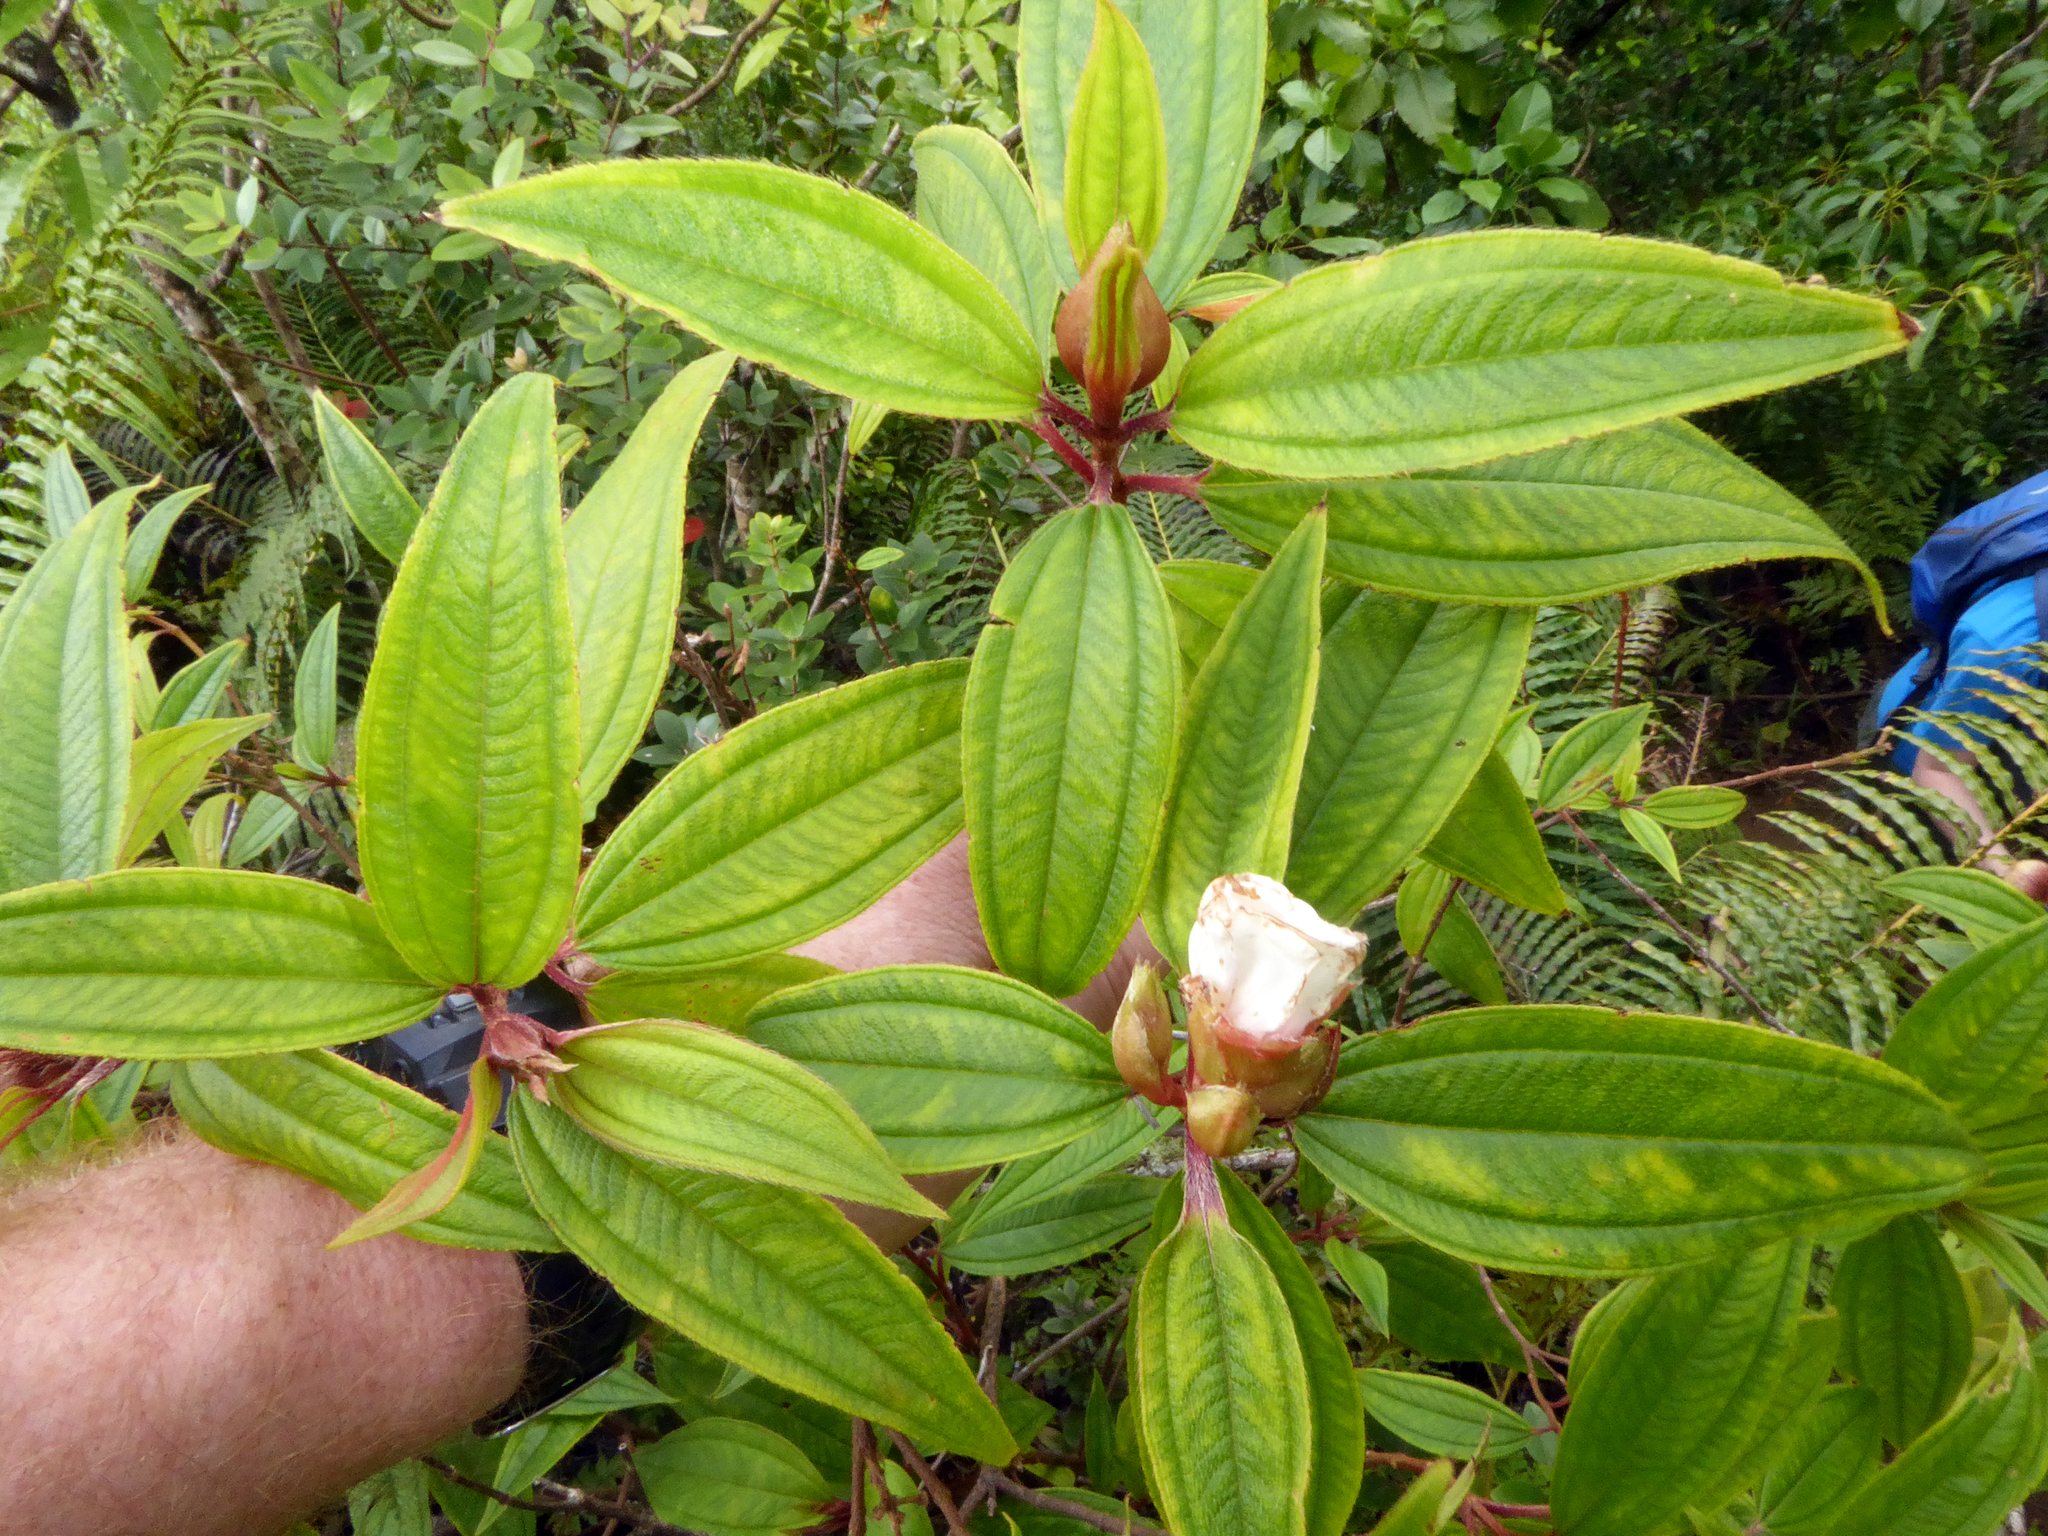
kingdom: Plantae
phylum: Tracheophyta
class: Magnoliopsida
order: Myrtales
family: Melastomataceae
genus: Melastoma
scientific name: Melastoma denticulatum
